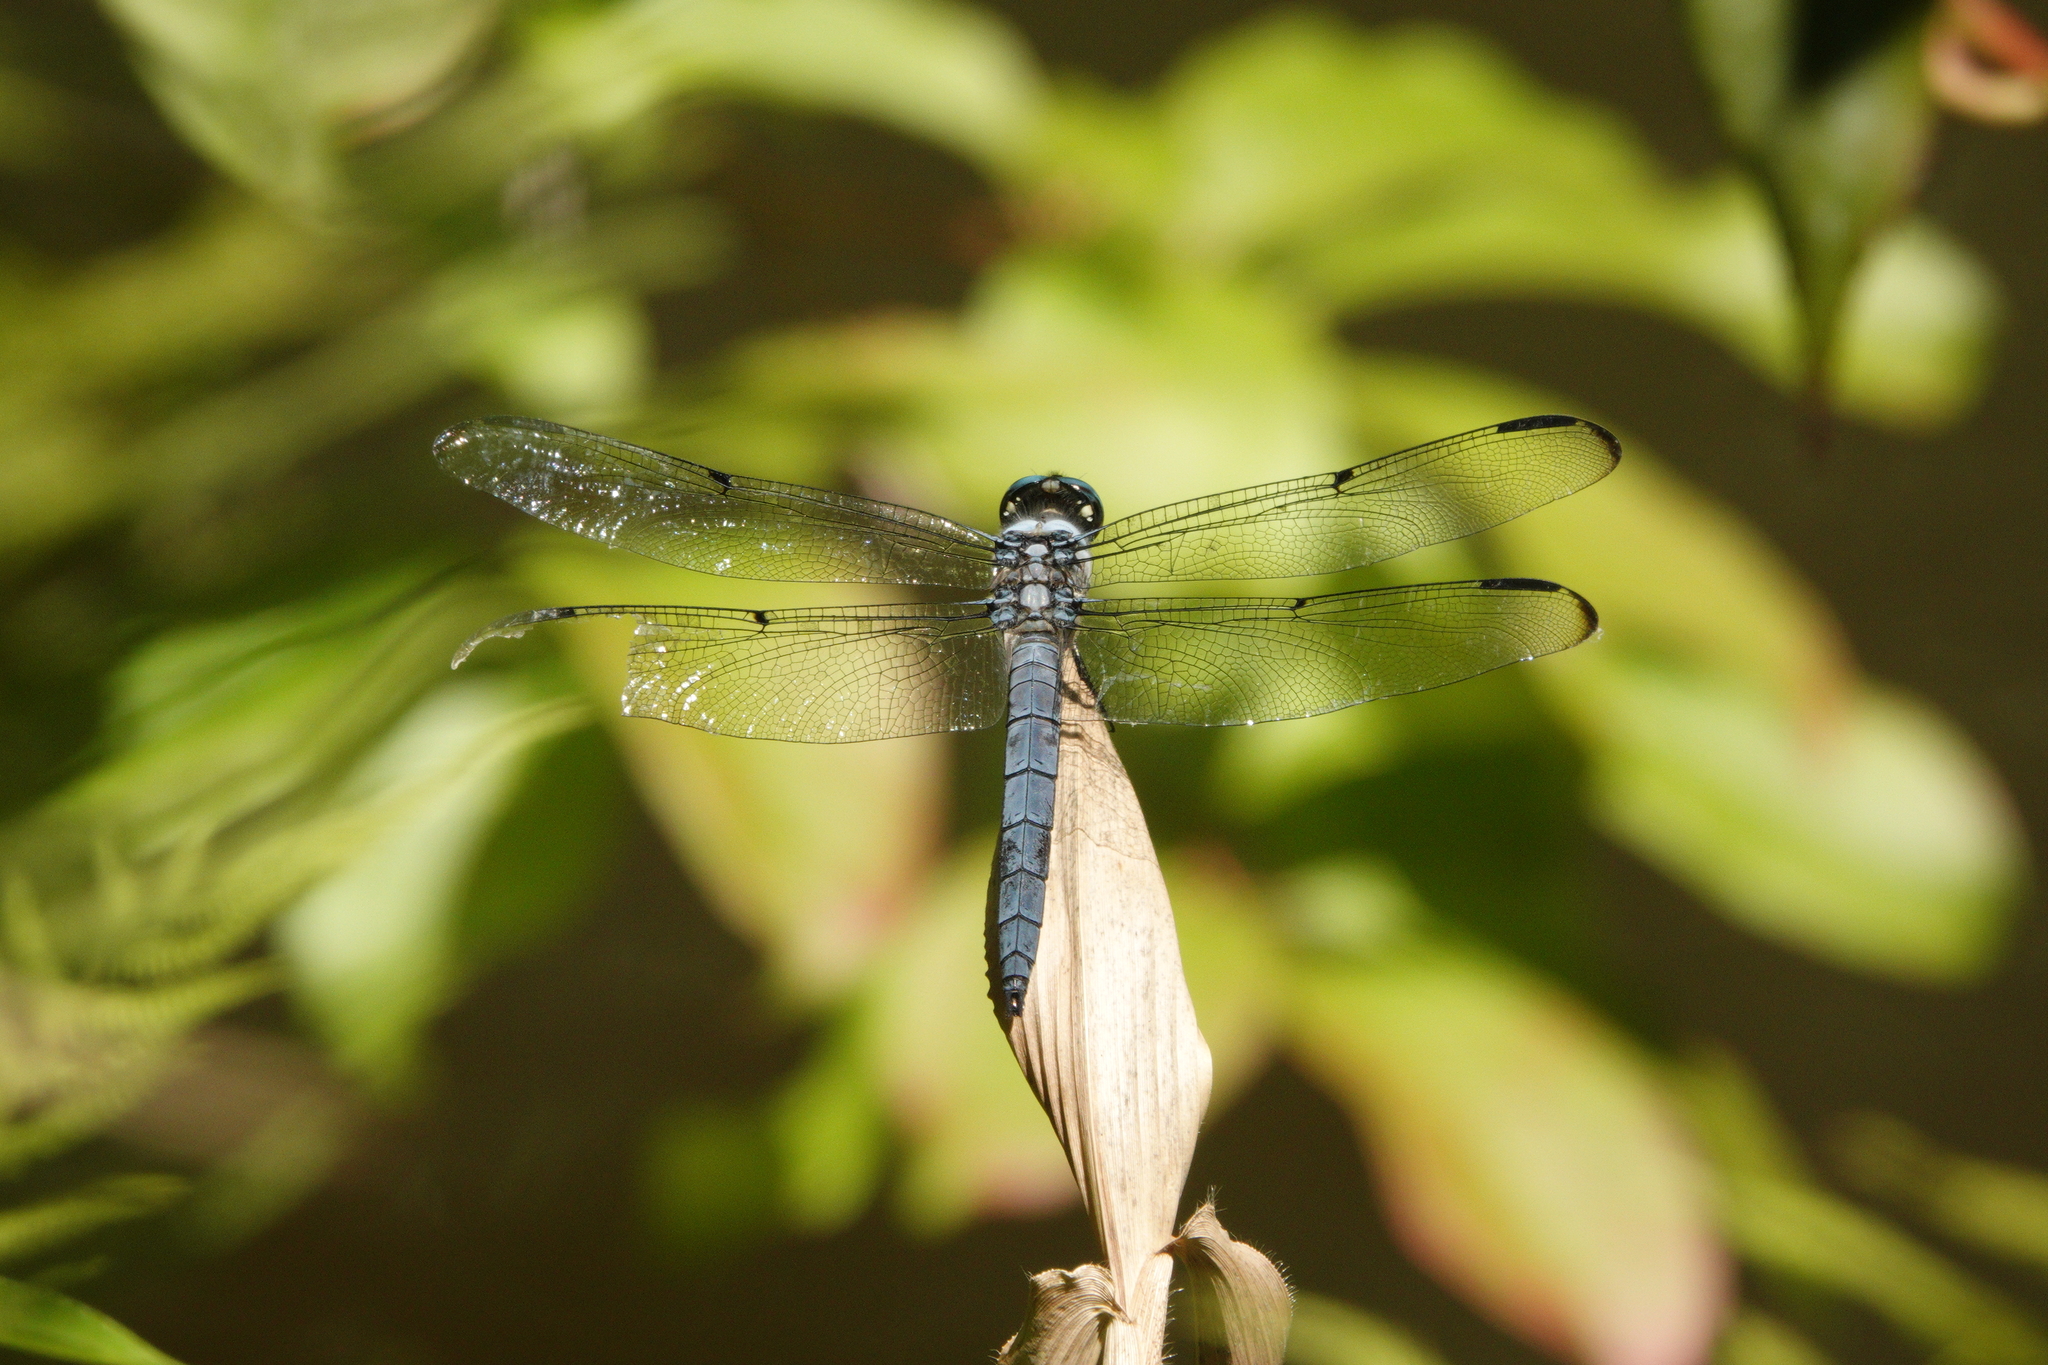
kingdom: Animalia
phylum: Arthropoda
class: Insecta
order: Odonata
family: Libellulidae
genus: Libellula
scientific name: Libellula vibrans
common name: Great blue skimmer
